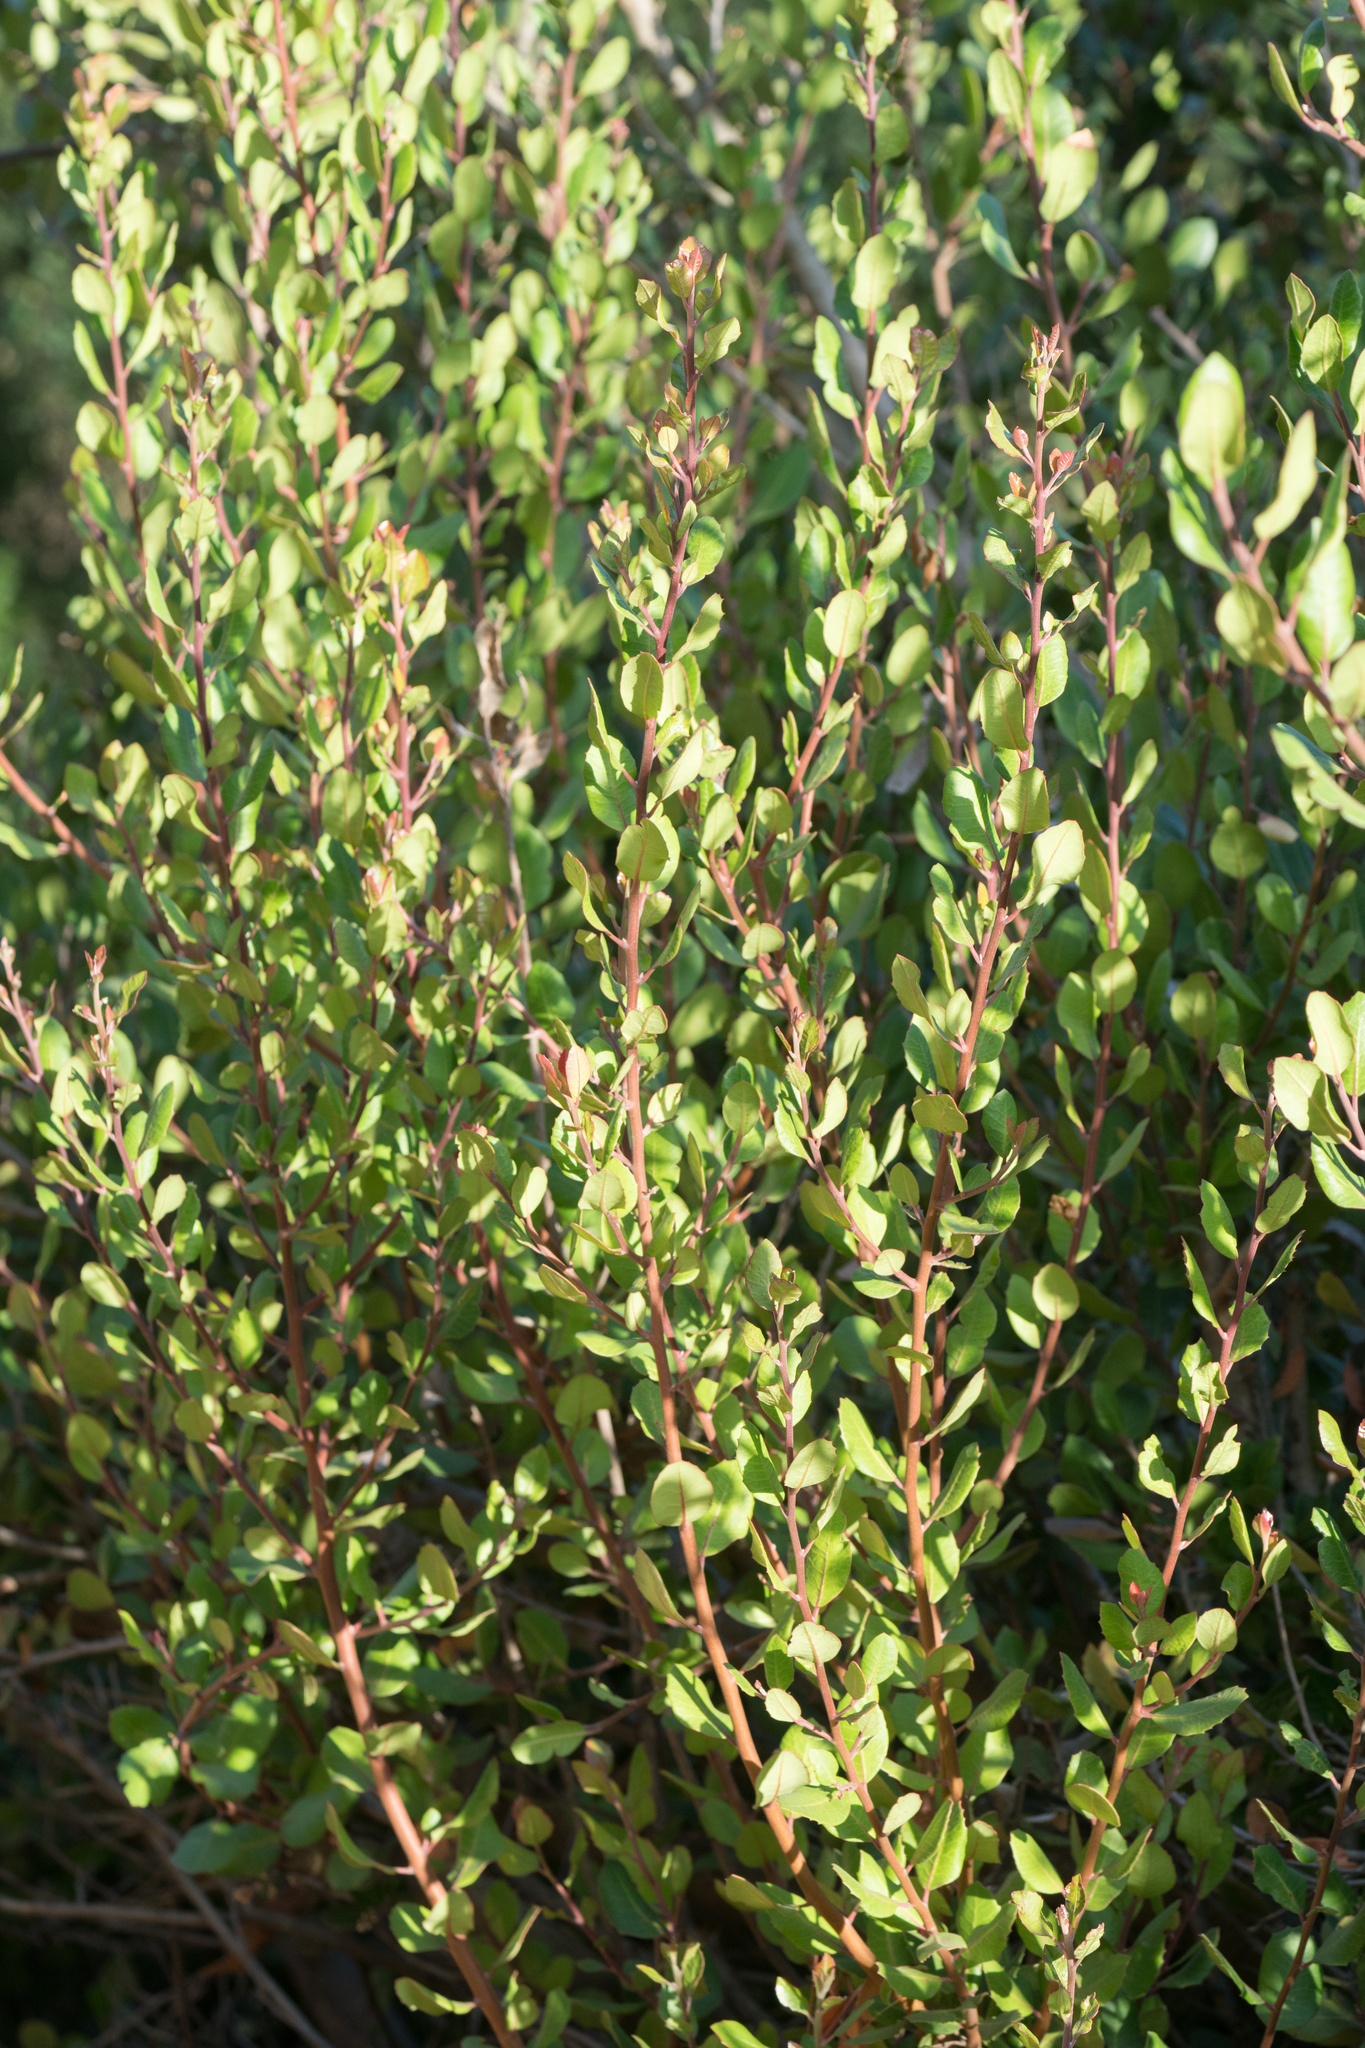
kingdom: Plantae
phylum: Tracheophyta
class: Magnoliopsida
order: Sapindales
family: Anacardiaceae
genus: Rhus
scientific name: Rhus integrifolia
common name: Lemonade sumac
